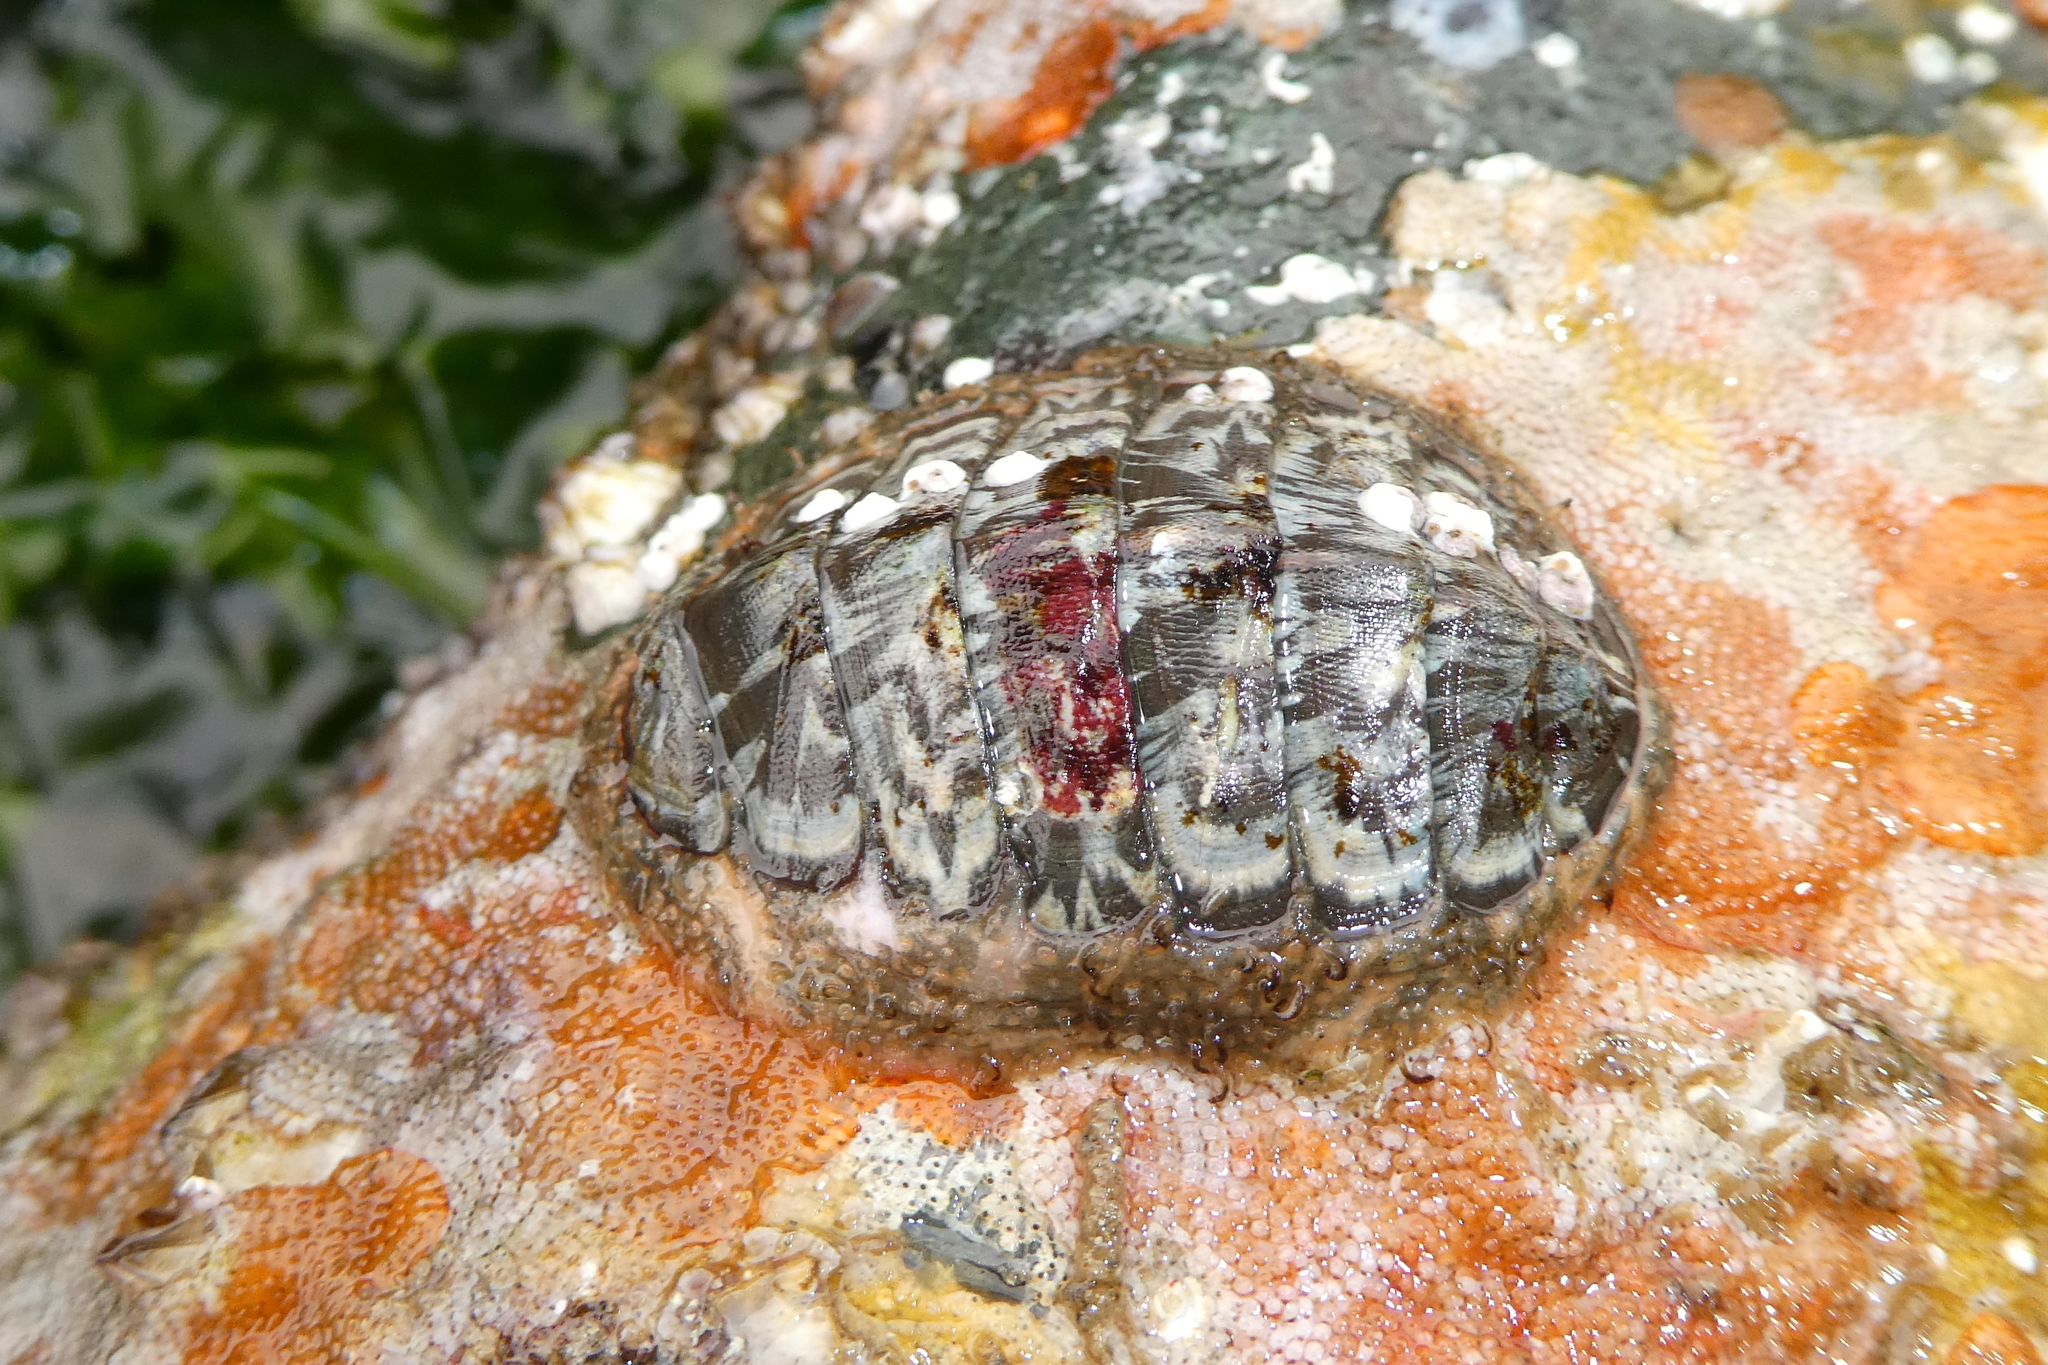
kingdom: Animalia
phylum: Mollusca
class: Polyplacophora
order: Chitonida
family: Mopaliidae
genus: Mopalia
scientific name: Mopalia lignosa
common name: Woody chiton
